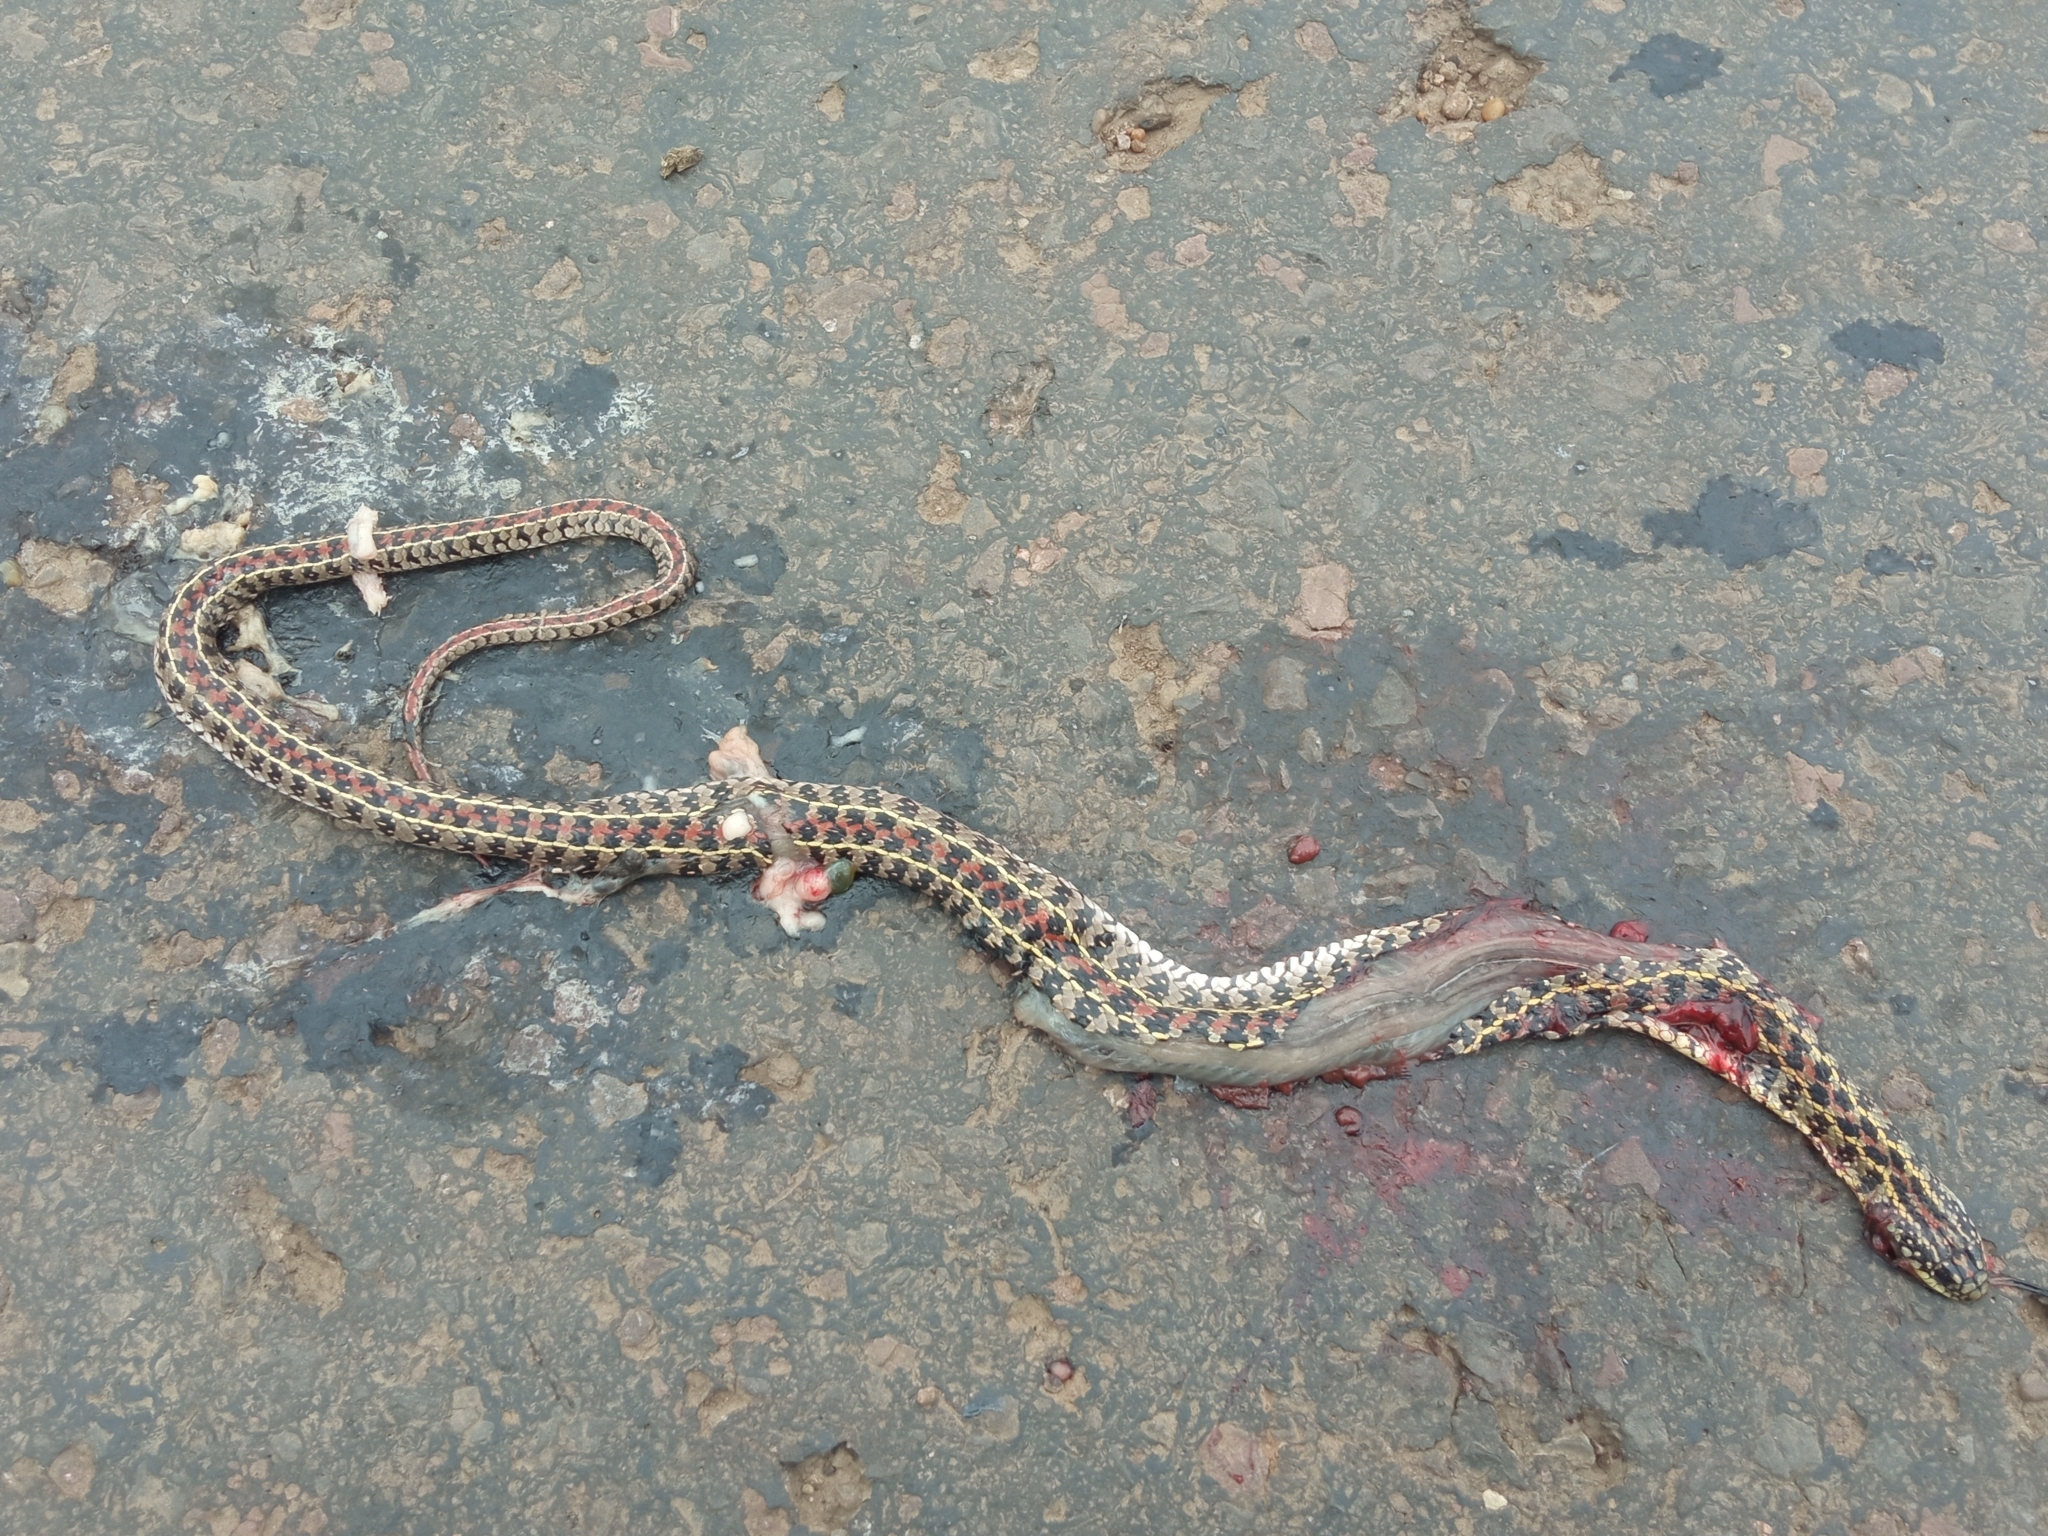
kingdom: Animalia
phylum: Chordata
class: Squamata
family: Colubridae
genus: Lygophis
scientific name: Lygophis anomalus
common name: English common name not available
